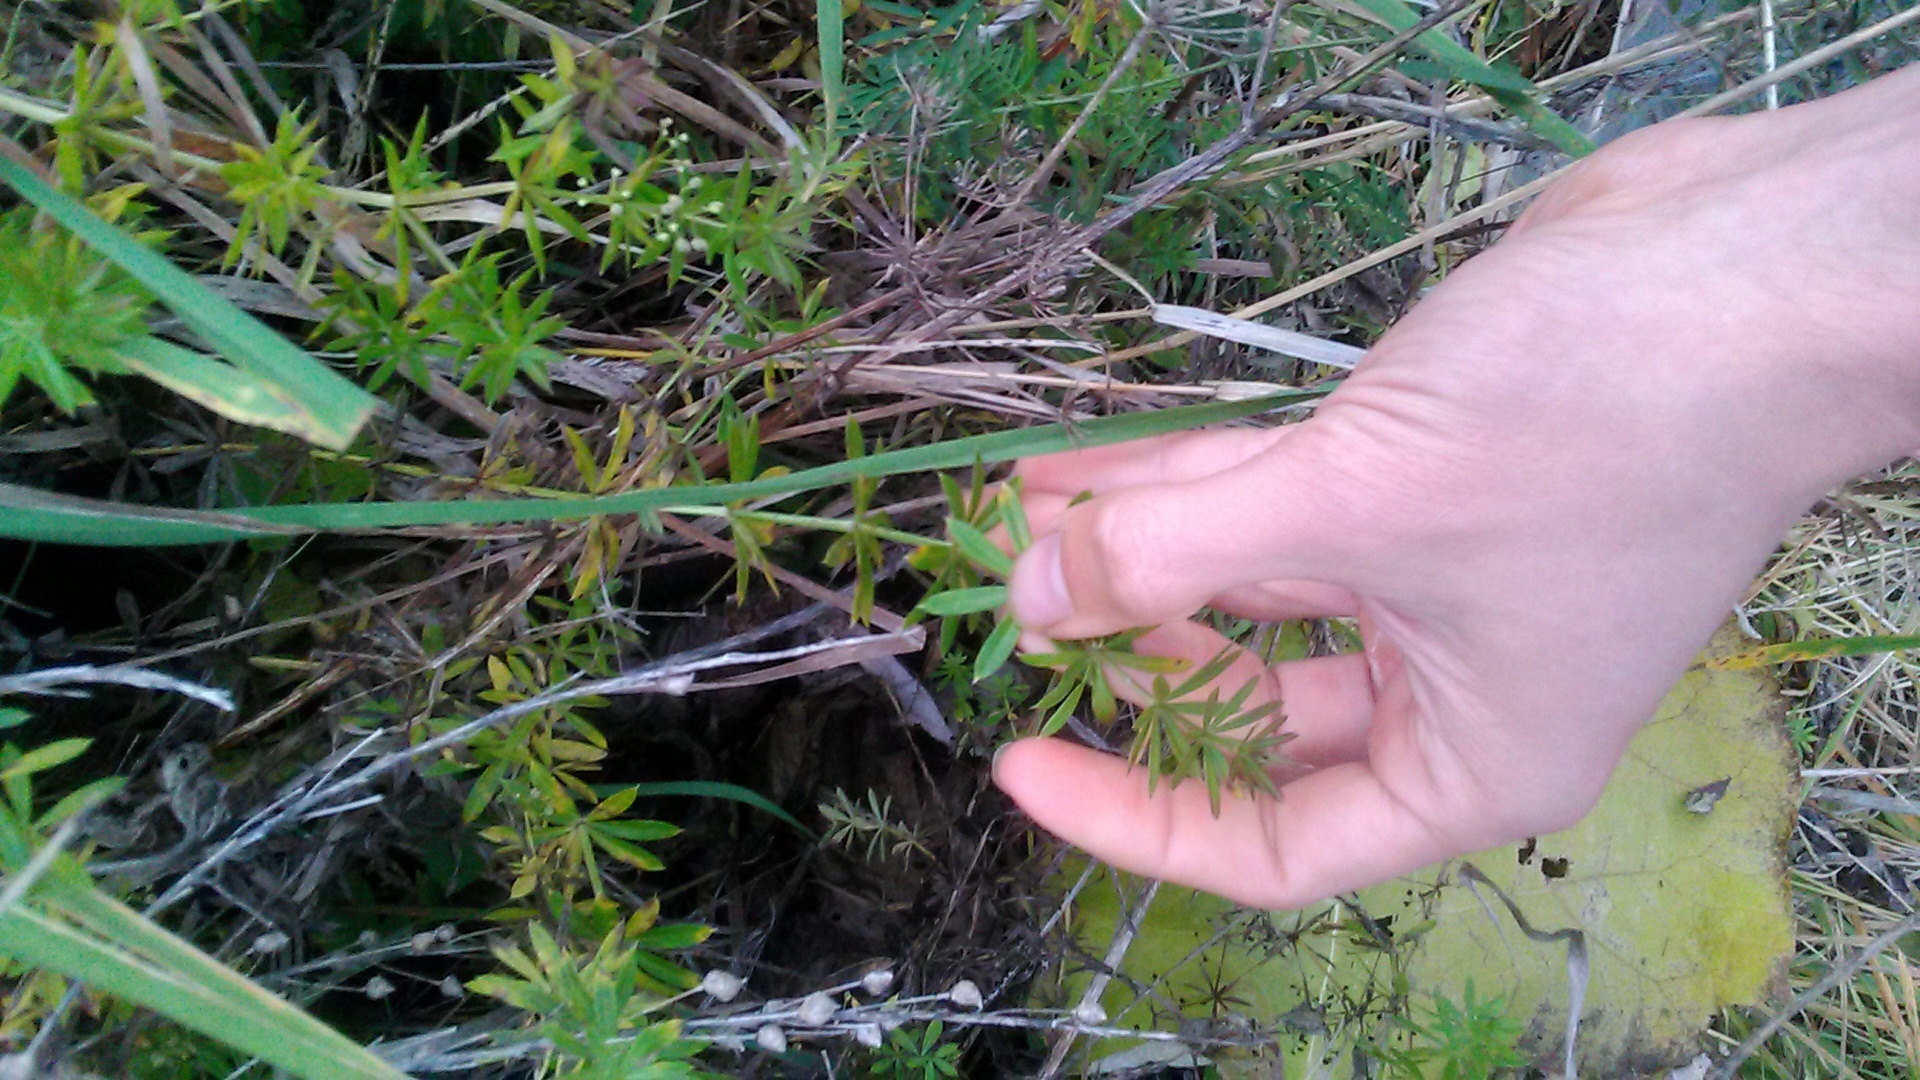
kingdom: Plantae
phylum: Tracheophyta
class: Magnoliopsida
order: Gentianales
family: Rubiaceae
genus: Galium
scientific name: Galium rivale
